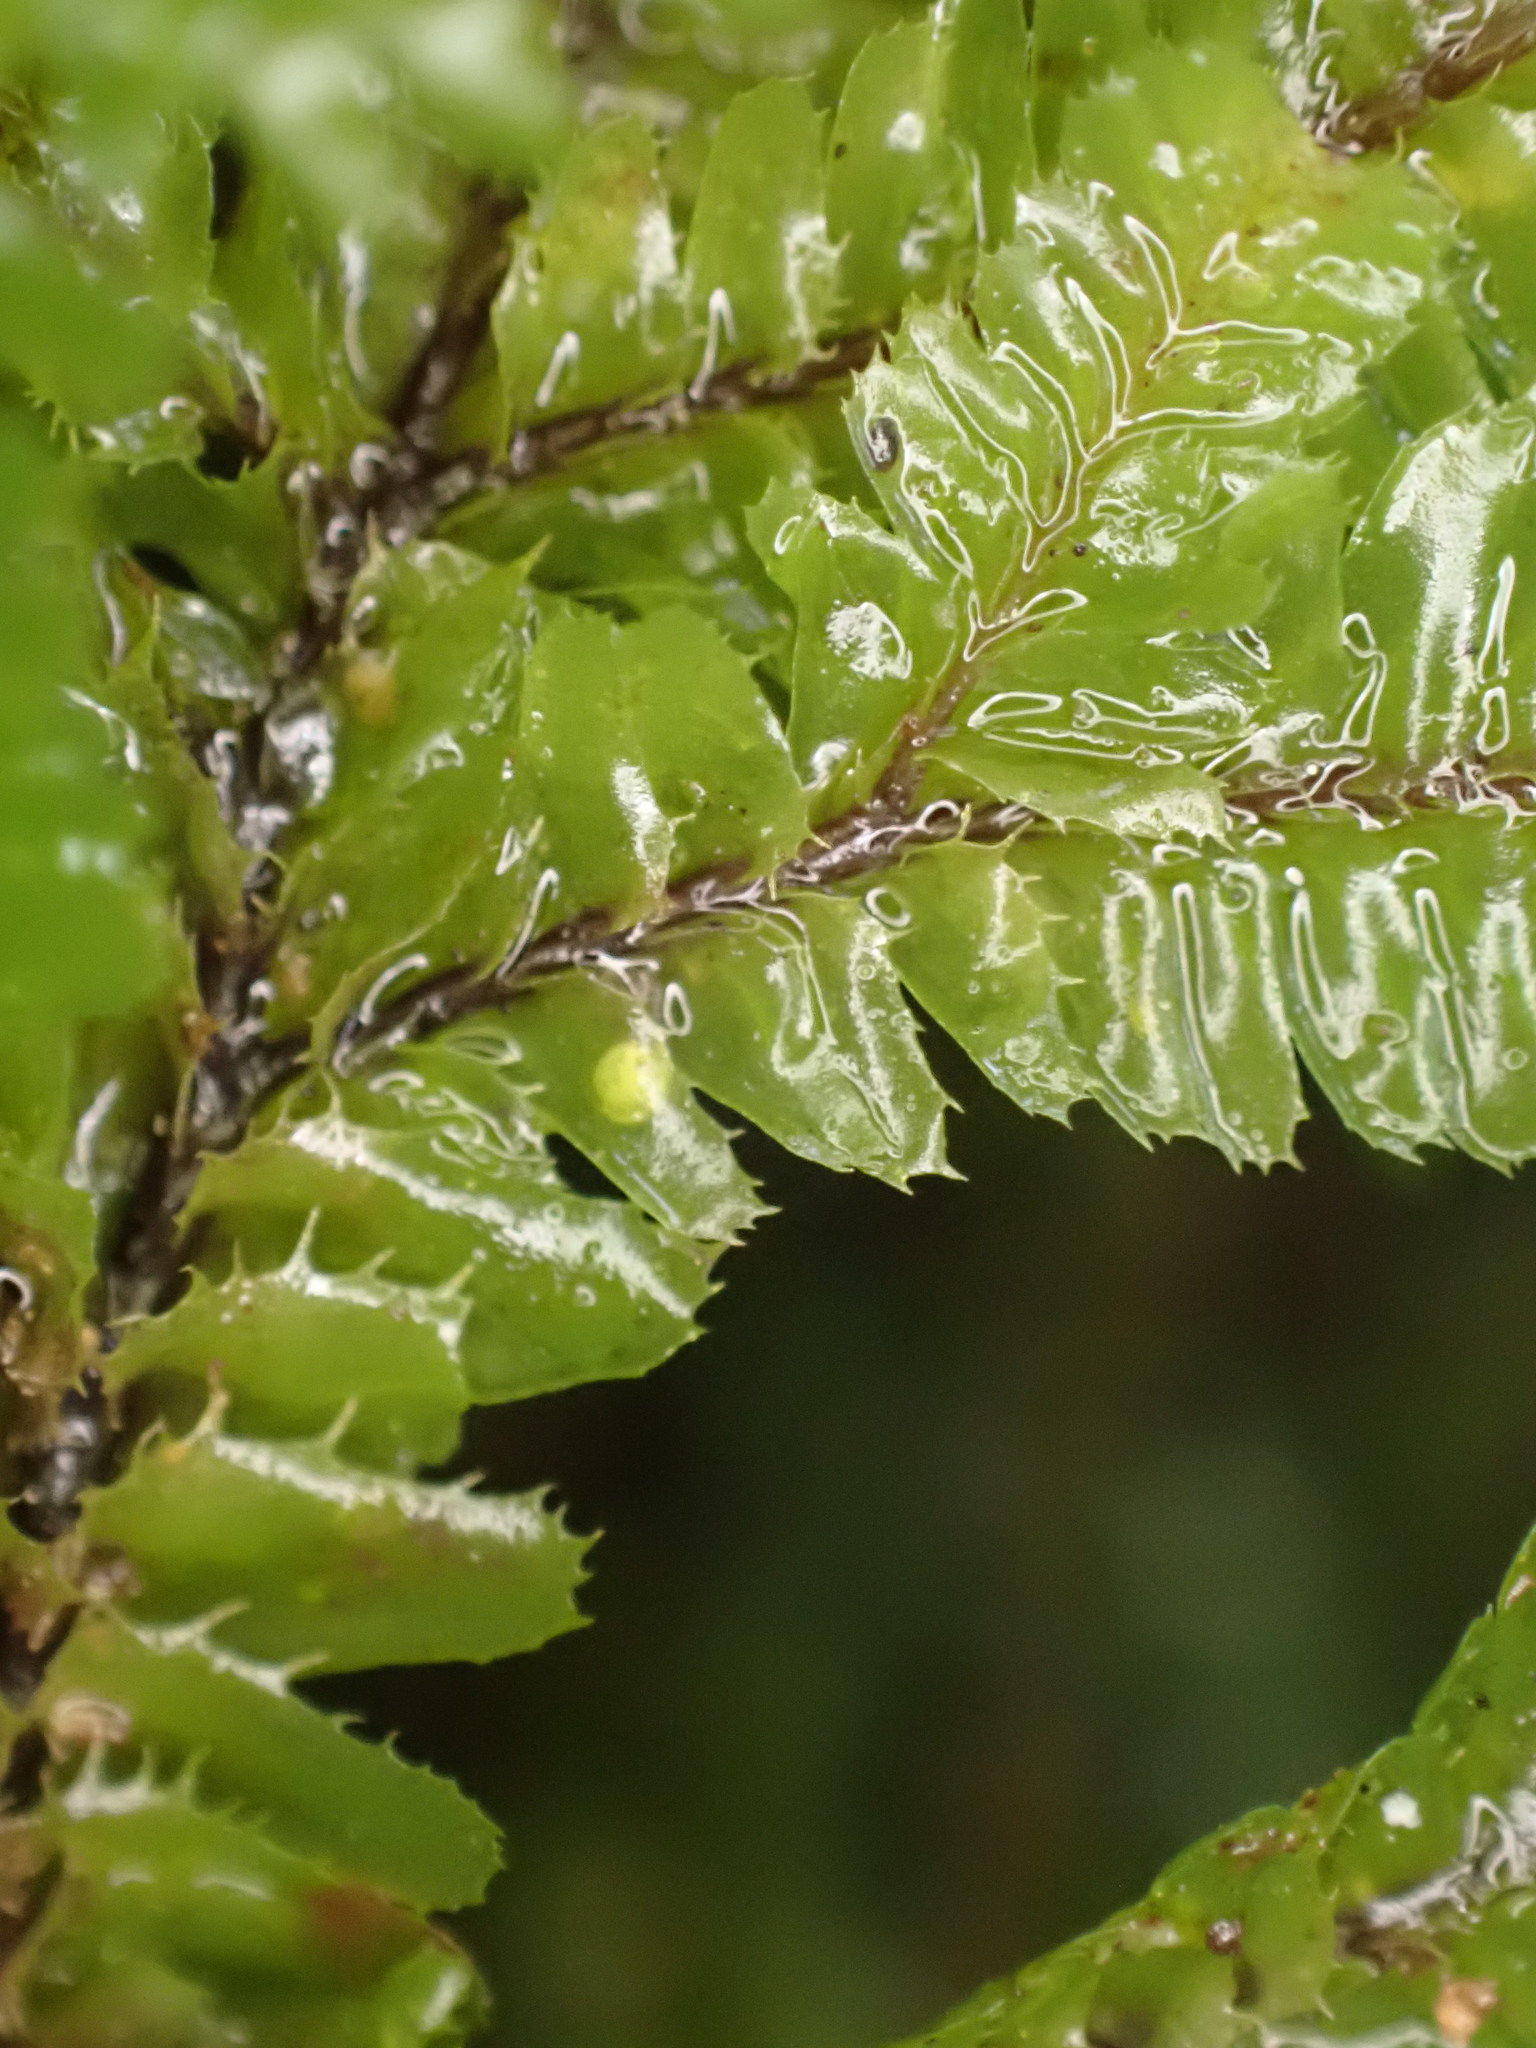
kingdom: Plantae
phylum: Marchantiophyta
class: Jungermanniopsida
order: Jungermanniales
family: Plagiochilaceae
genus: Plagiochila
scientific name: Plagiochila trispicata
